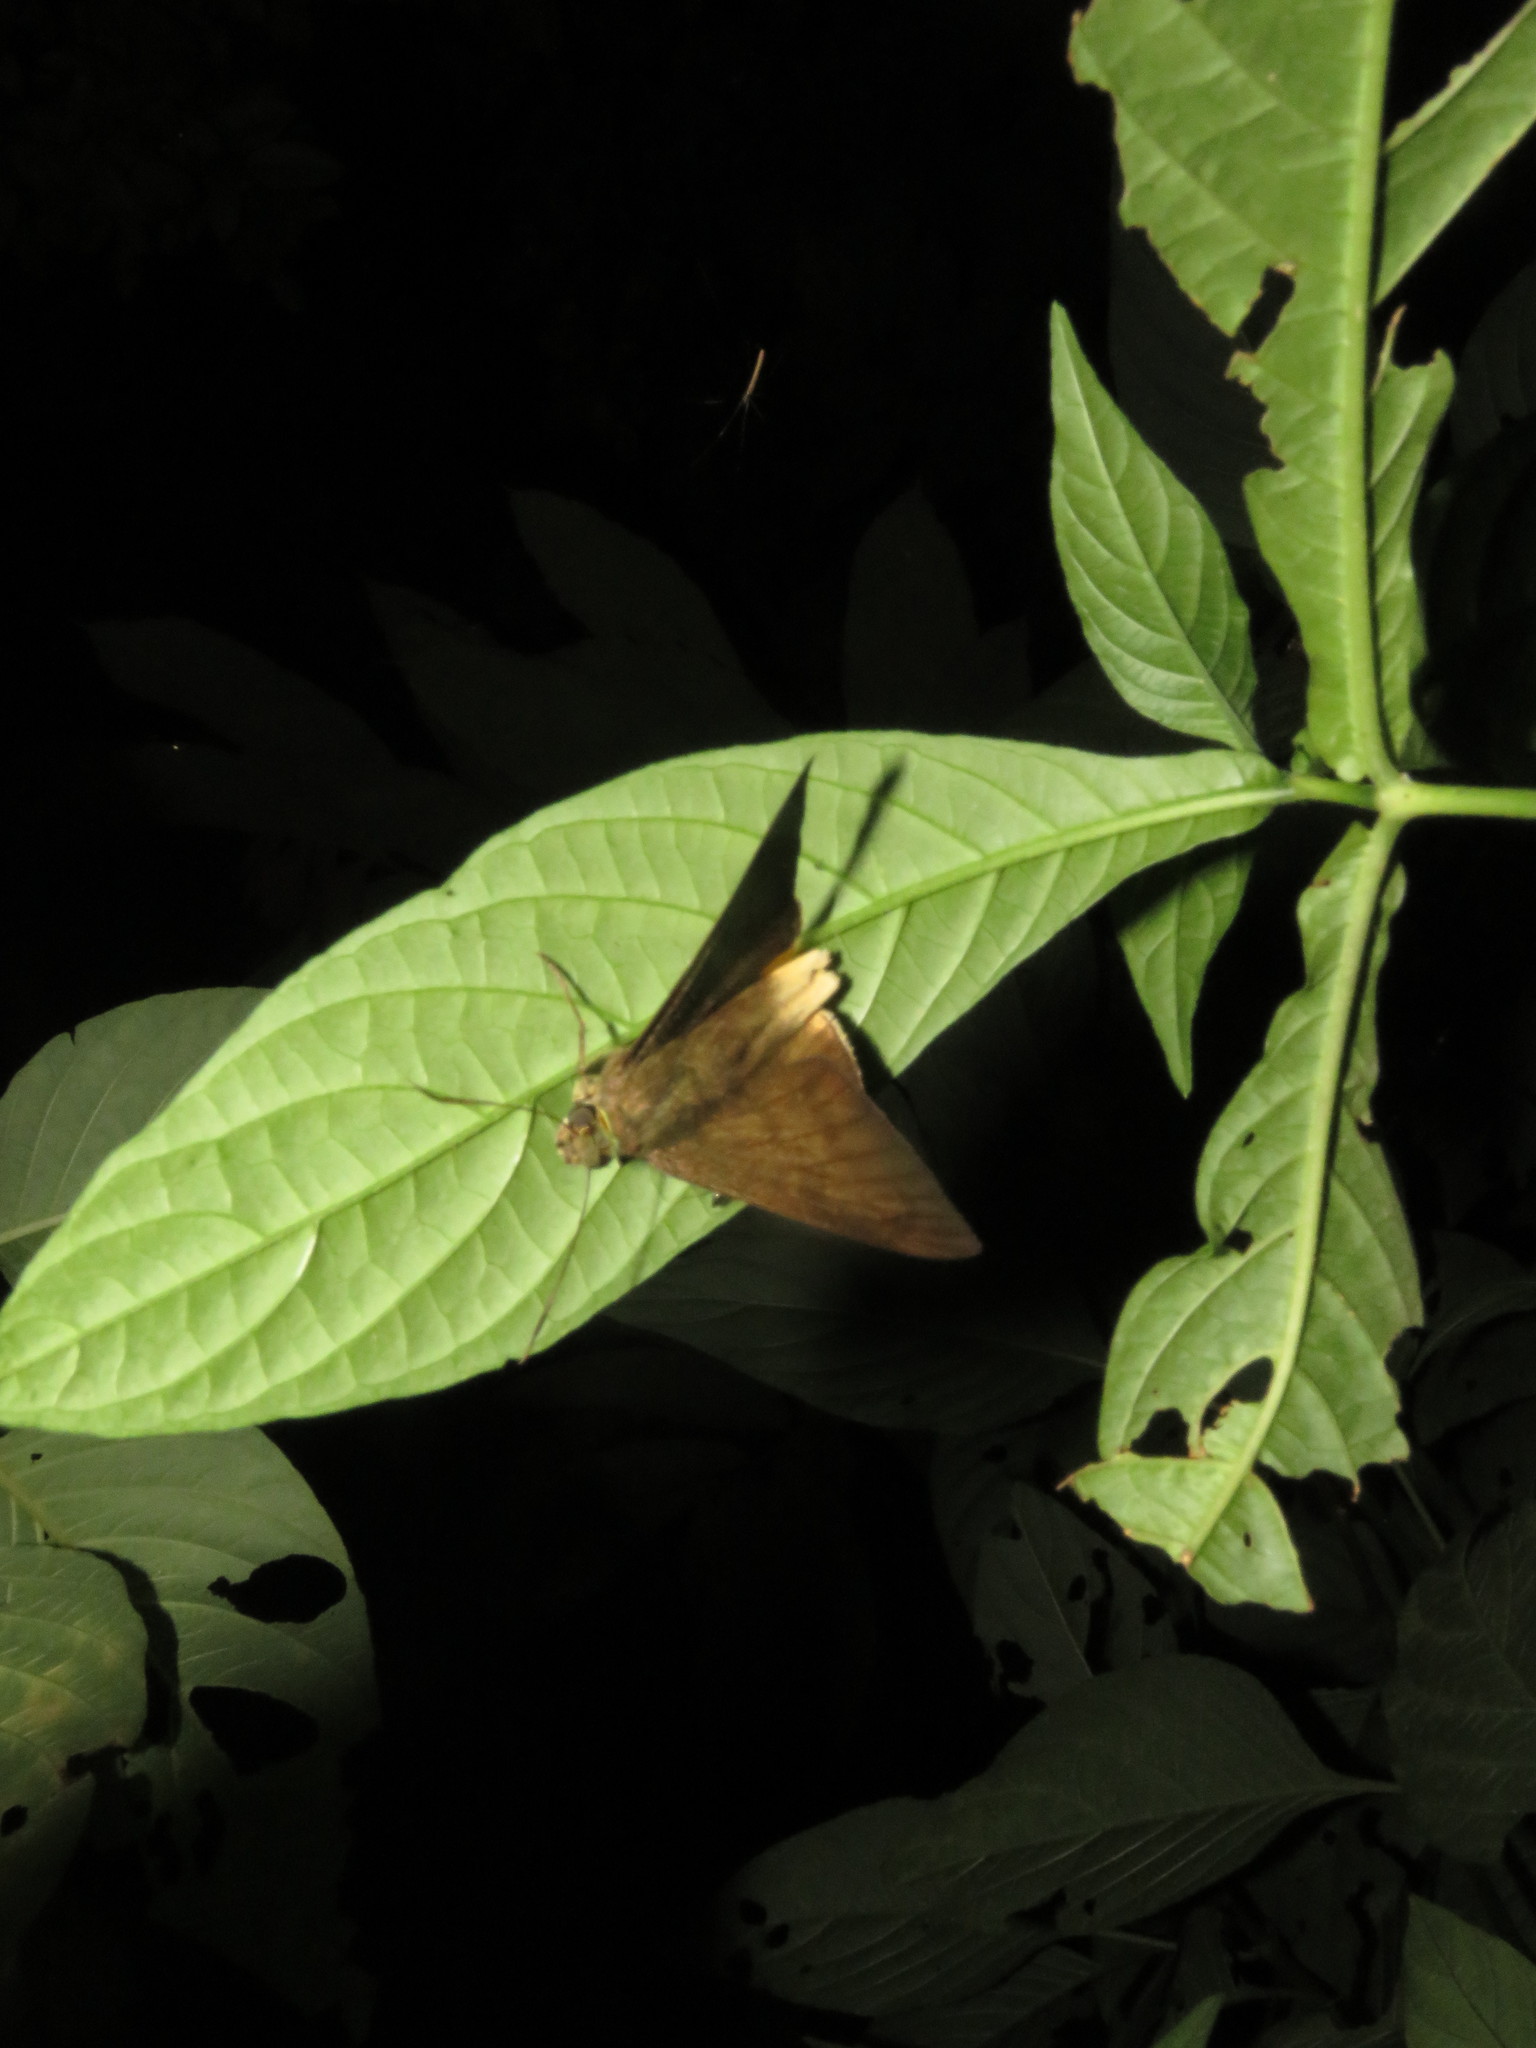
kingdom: Animalia
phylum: Arthropoda
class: Insecta
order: Lepidoptera
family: Hesperiidae
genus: Astraptes
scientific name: Astraptes anaphus
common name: Yellow-tipped flasher
